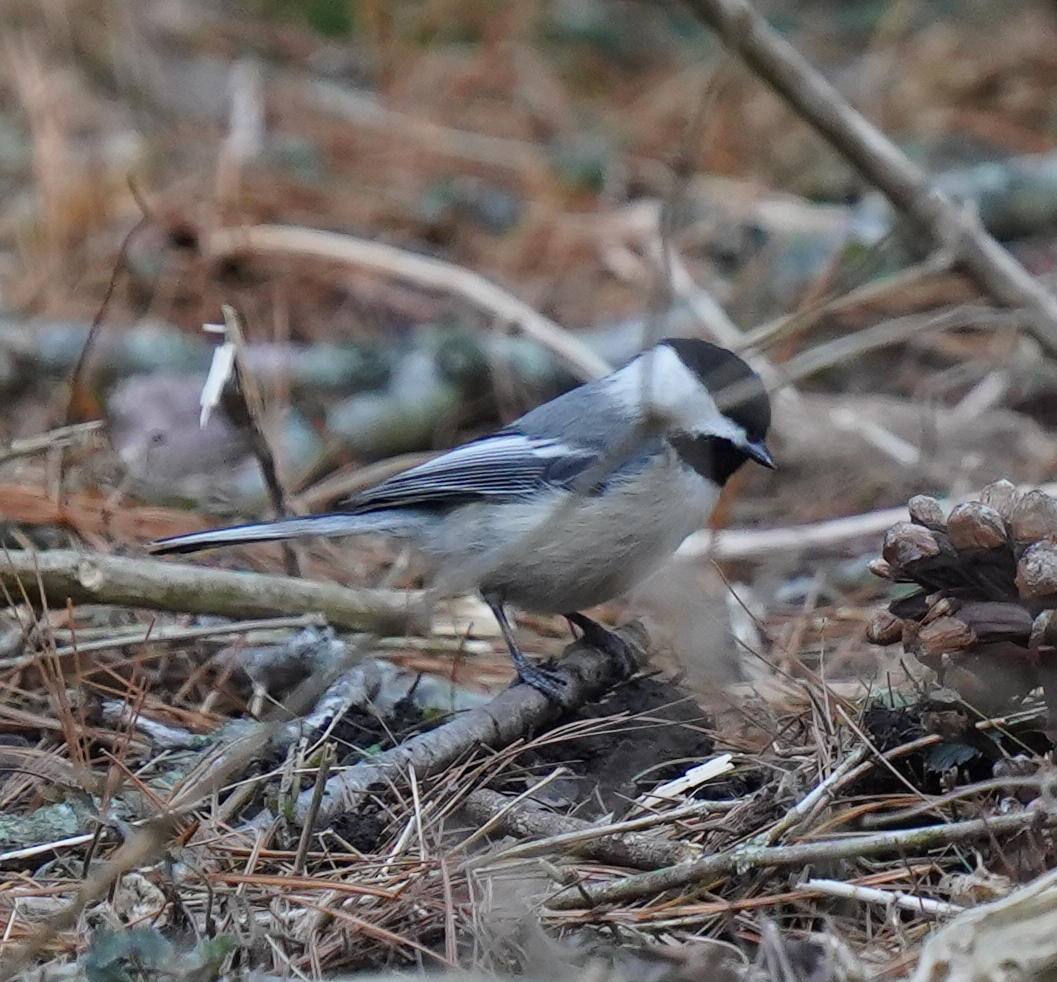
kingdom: Animalia
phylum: Chordata
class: Aves
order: Passeriformes
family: Paridae
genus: Poecile
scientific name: Poecile atricapillus
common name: Black-capped chickadee
